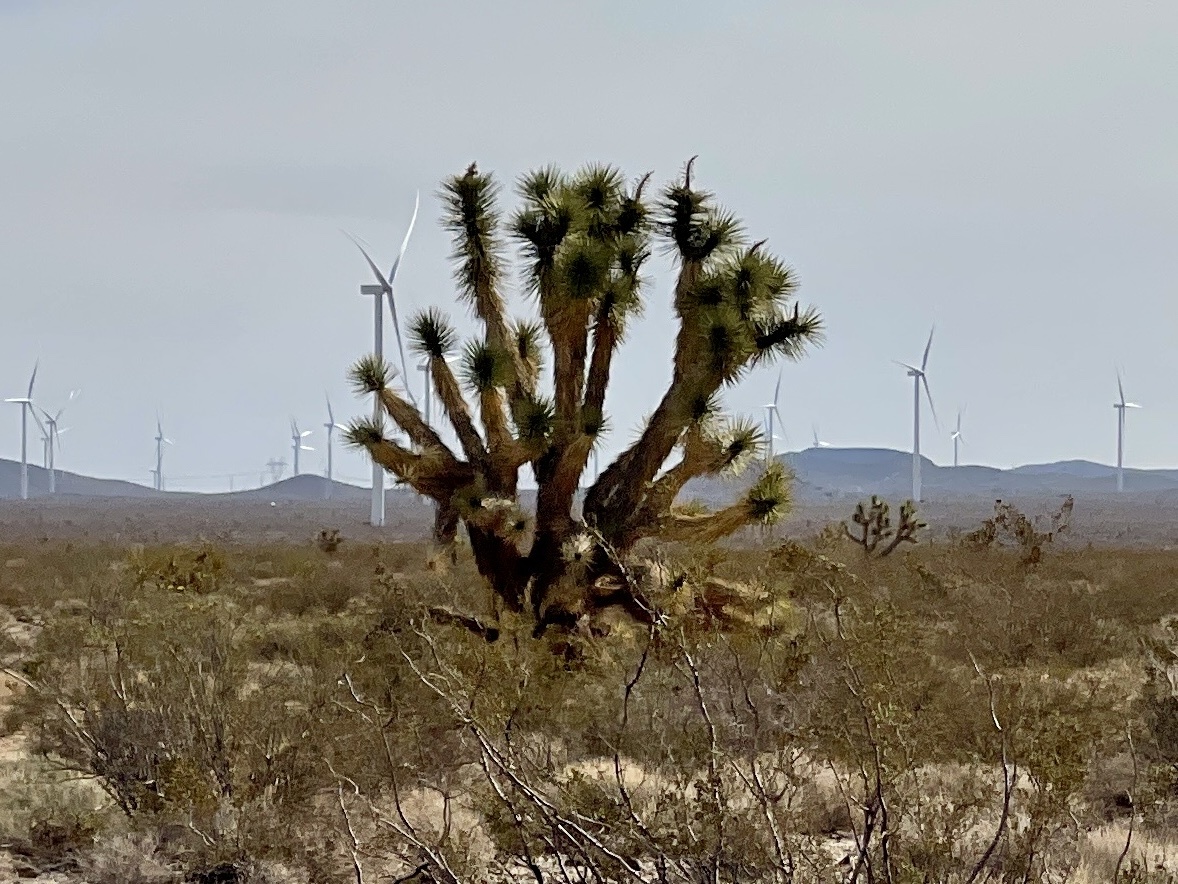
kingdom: Plantae
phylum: Tracheophyta
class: Liliopsida
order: Asparagales
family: Asparagaceae
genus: Yucca
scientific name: Yucca brevifolia
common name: Joshua tree
